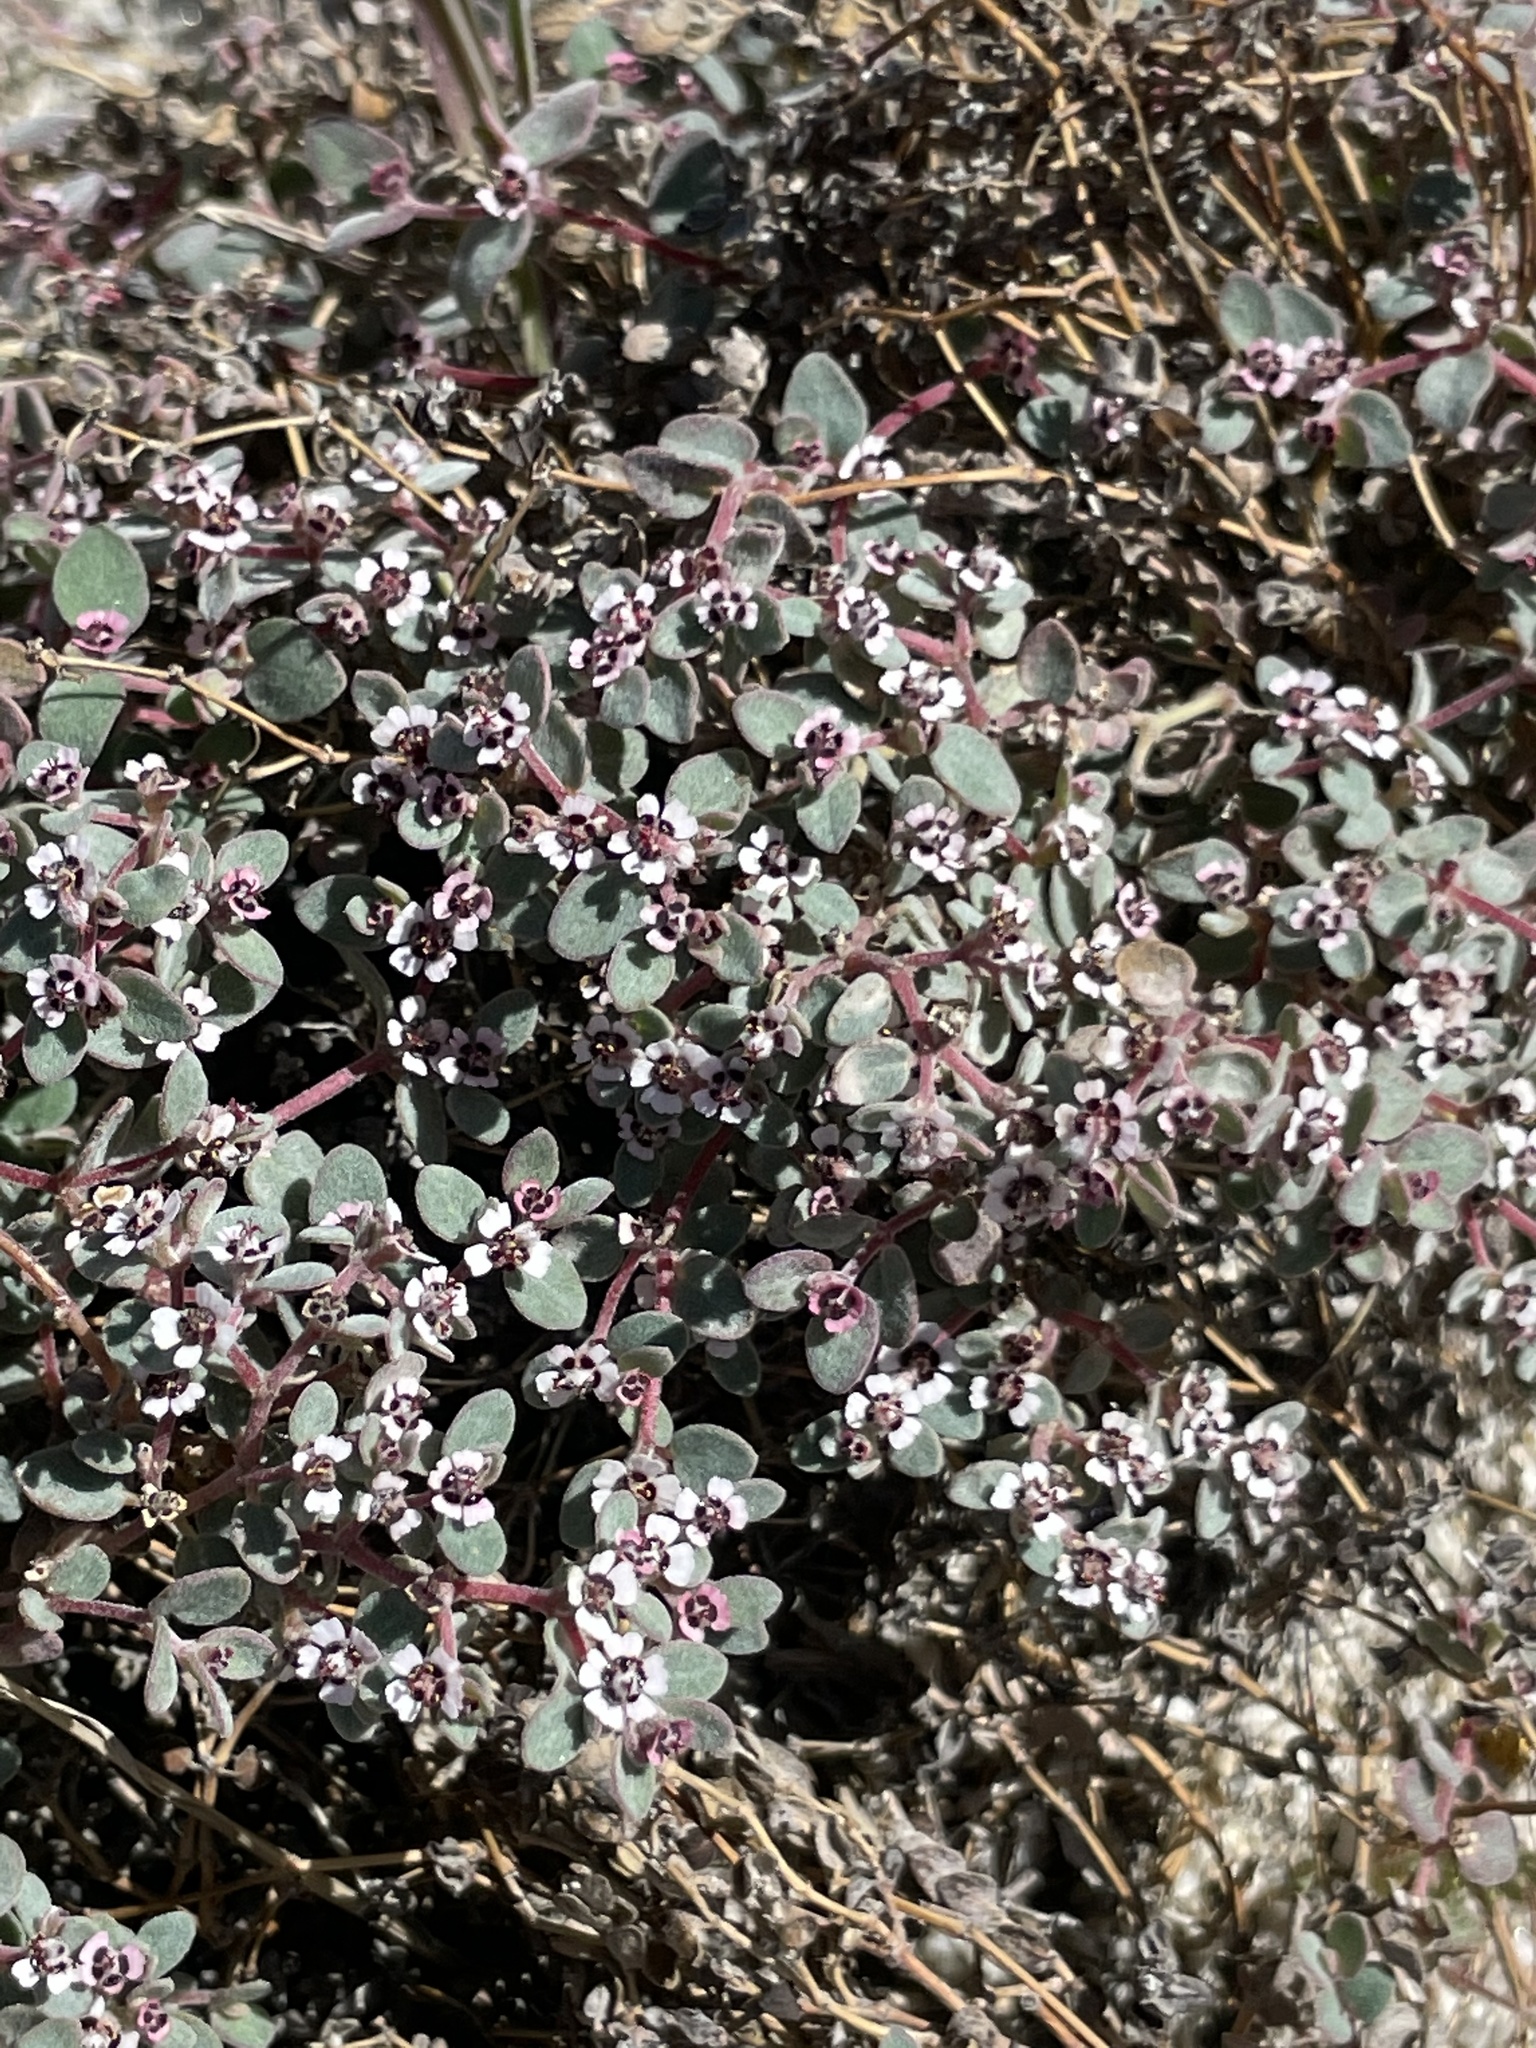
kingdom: Plantae
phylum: Tracheophyta
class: Magnoliopsida
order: Malpighiales
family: Euphorbiaceae
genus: Euphorbia
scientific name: Euphorbia melanadenia
